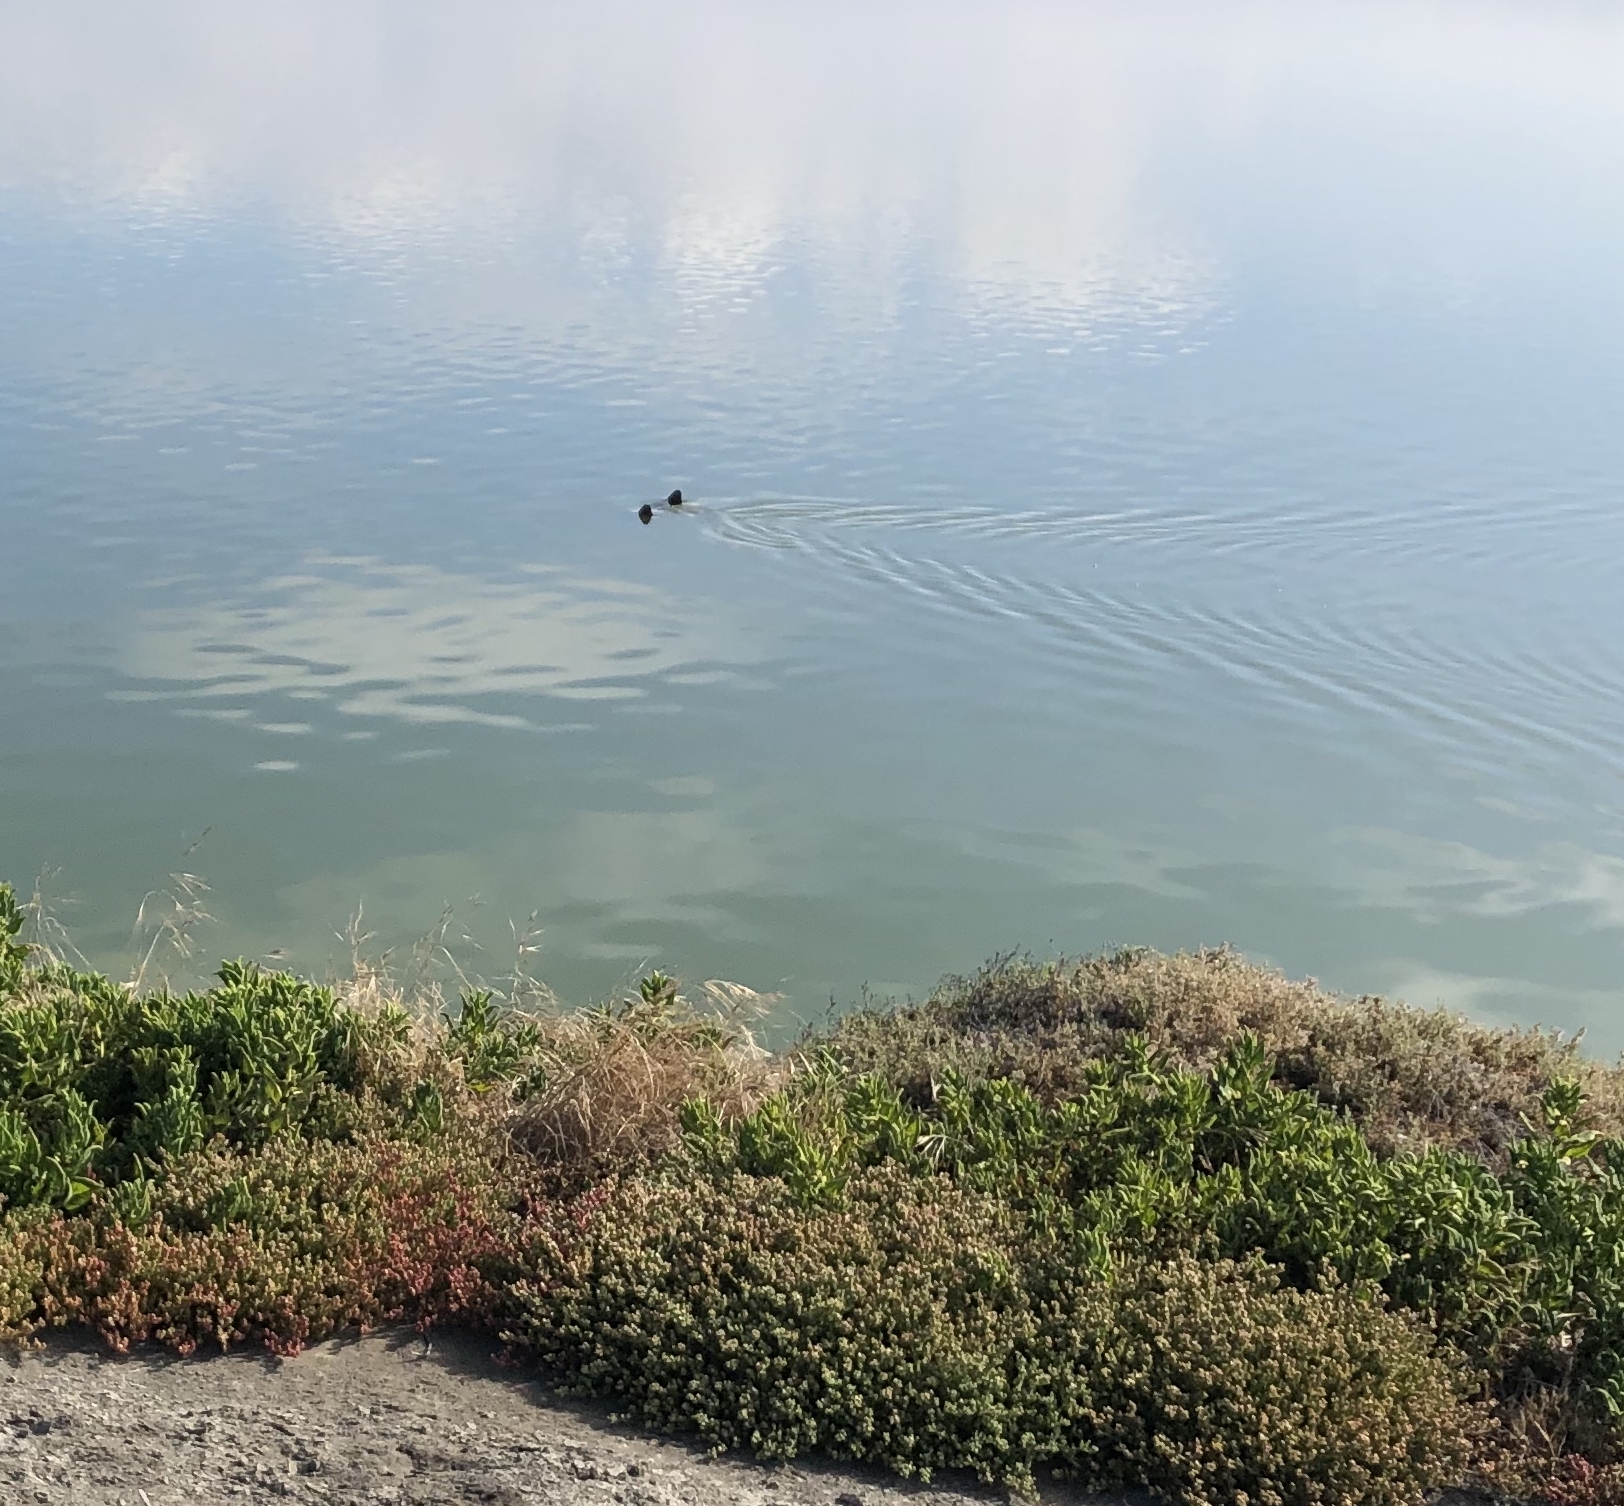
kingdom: Animalia
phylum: Chordata
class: Elasmobranchii
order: Myliobatiformes
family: Myliobatidae
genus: Myliobatis
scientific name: Myliobatis californica
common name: Bat ray
